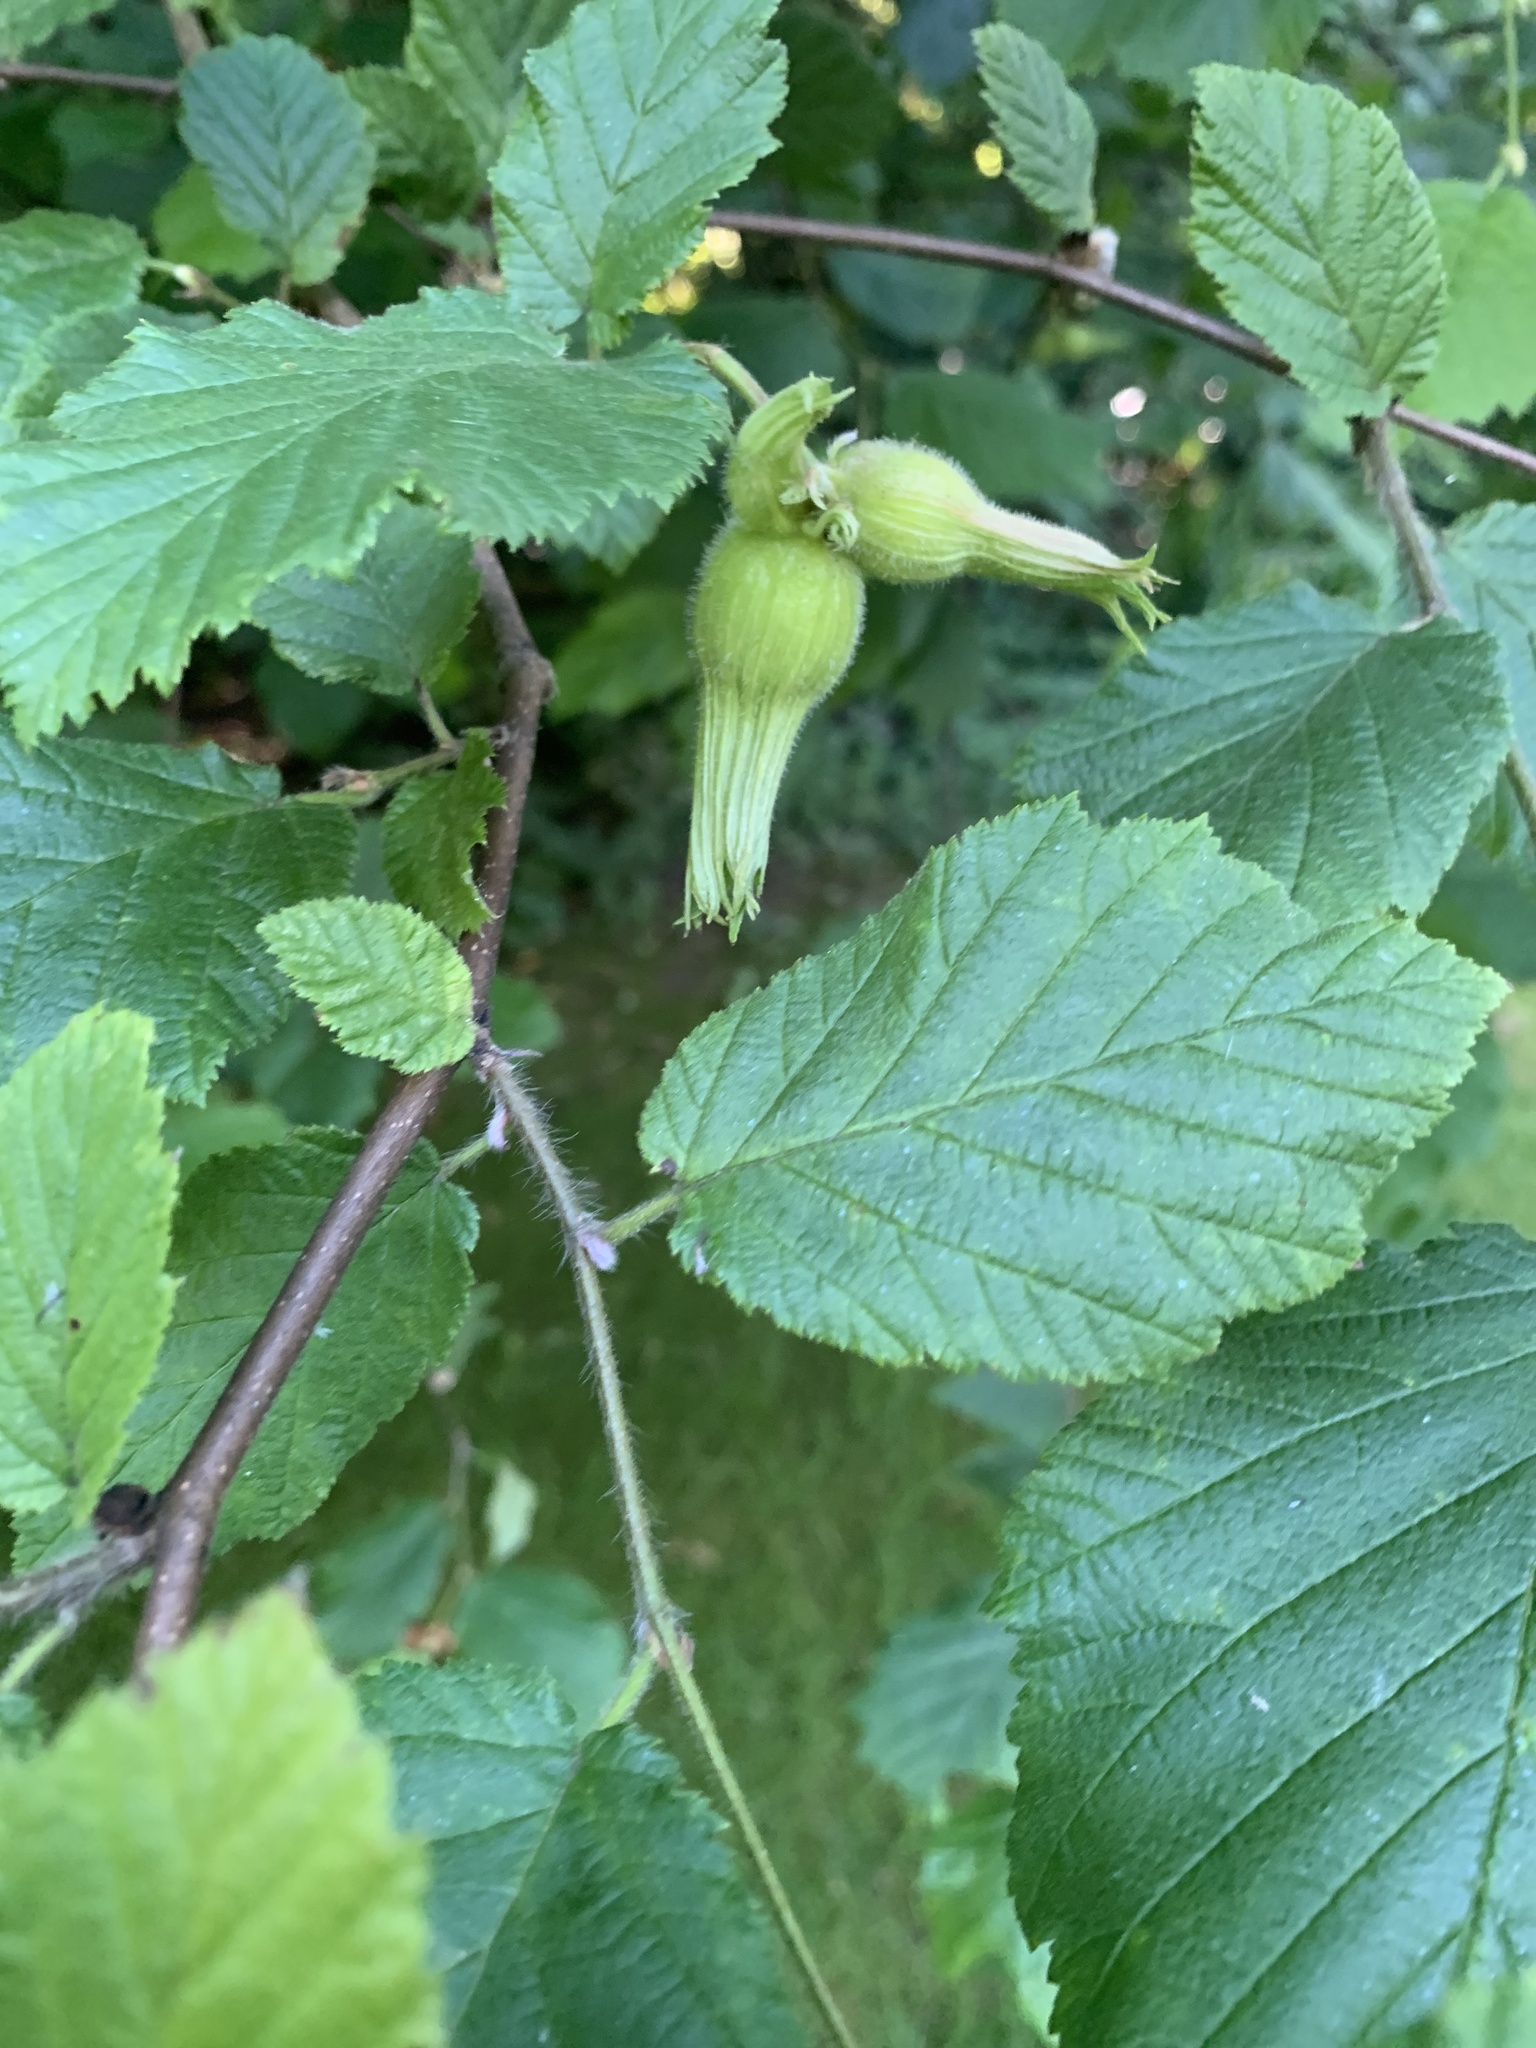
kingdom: Plantae
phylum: Tracheophyta
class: Magnoliopsida
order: Fagales
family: Betulaceae
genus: Corylus
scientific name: Corylus cornuta
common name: Beaked hazel
